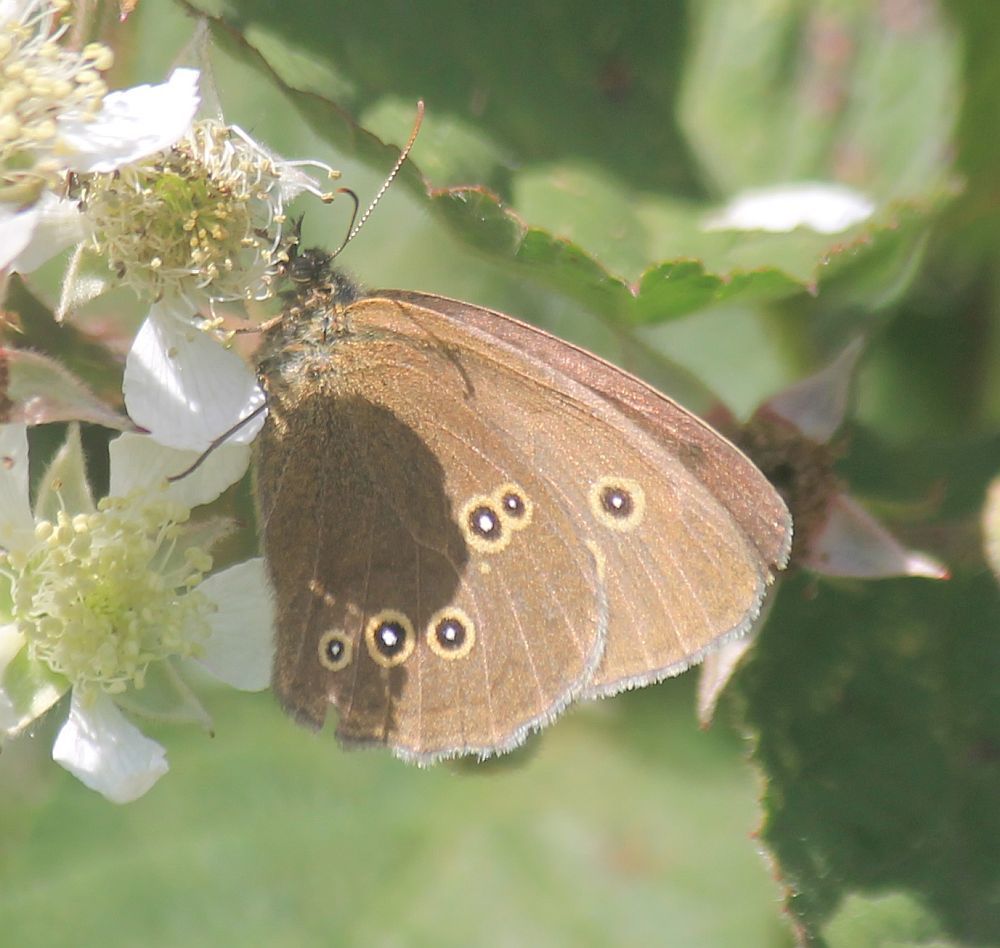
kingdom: Animalia
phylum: Arthropoda
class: Insecta
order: Lepidoptera
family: Nymphalidae
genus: Aphantopus
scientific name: Aphantopus hyperantus
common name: Ringlet
